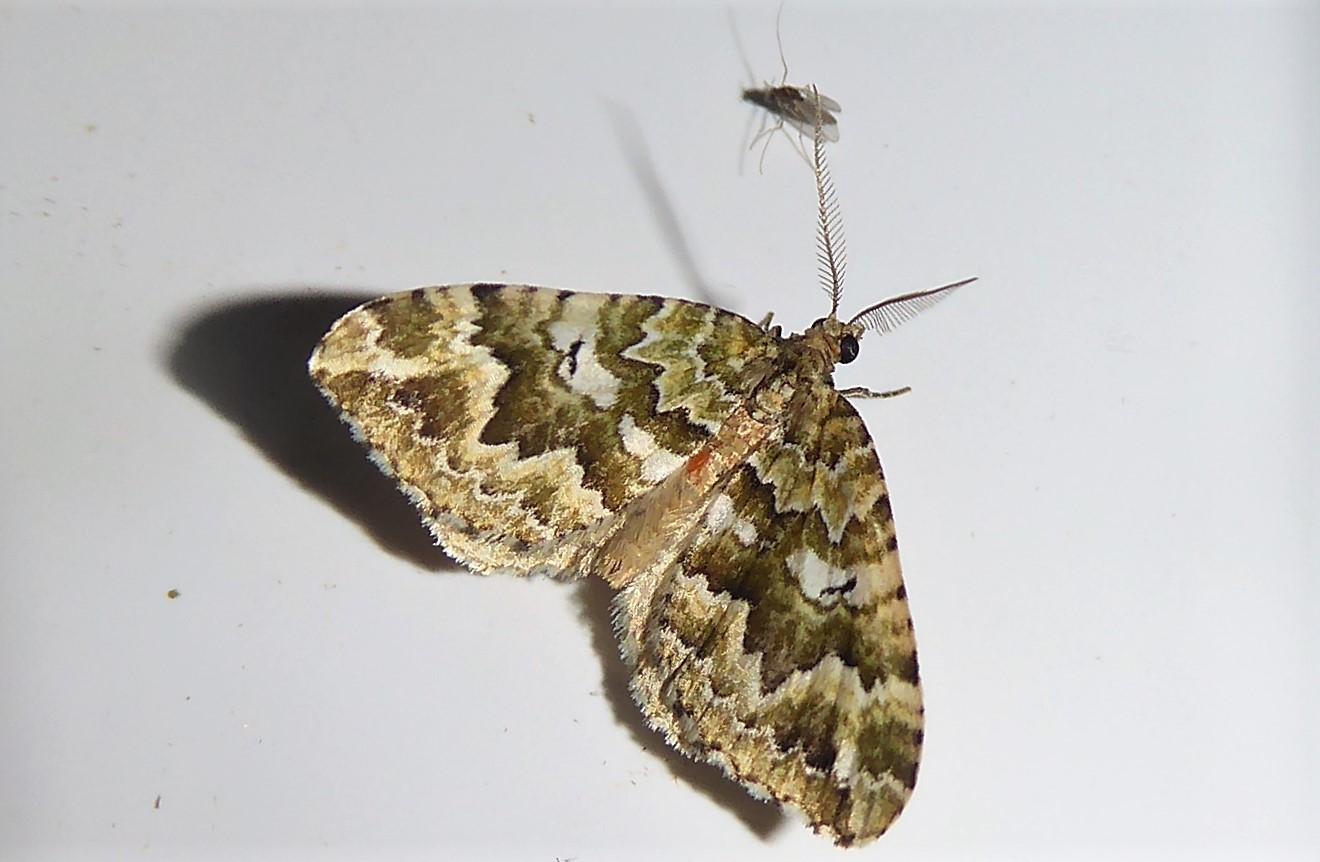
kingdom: Animalia
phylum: Arthropoda
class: Insecta
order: Lepidoptera
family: Geometridae
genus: Asaphodes
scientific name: Asaphodes beata
